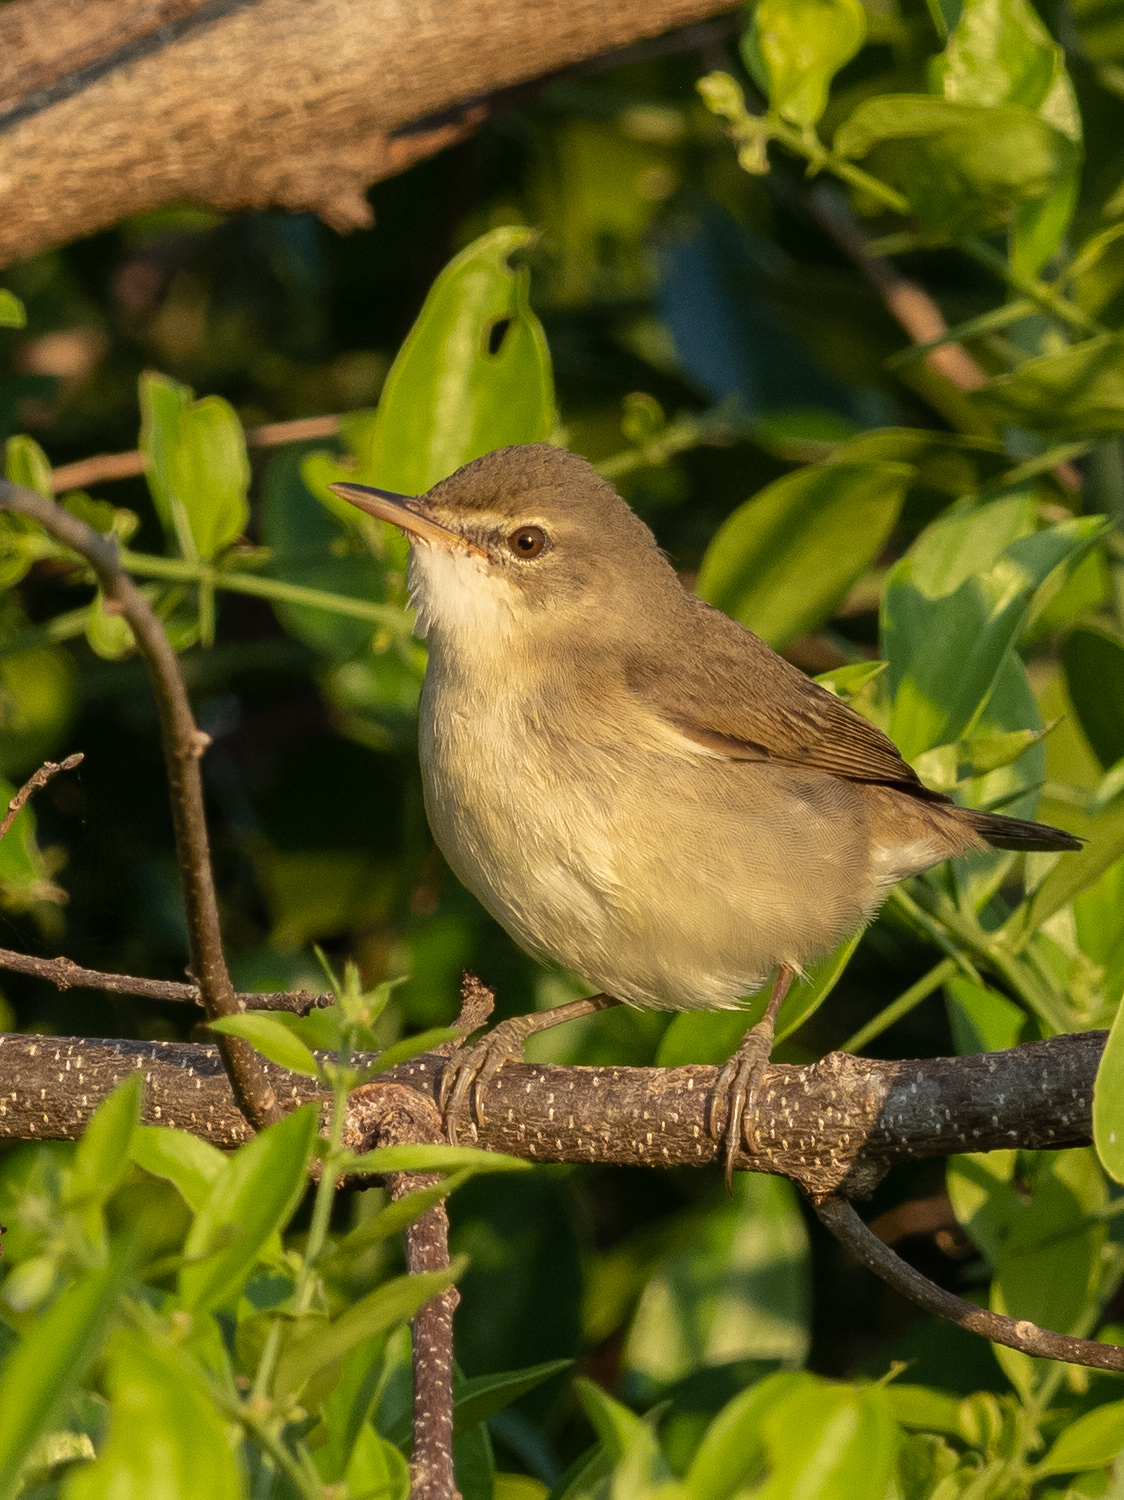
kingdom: Animalia
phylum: Chordata
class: Aves
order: Passeriformes
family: Acrocephalidae
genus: Acrocephalus
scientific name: Acrocephalus dumetorum
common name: Blyth's reed warbler
